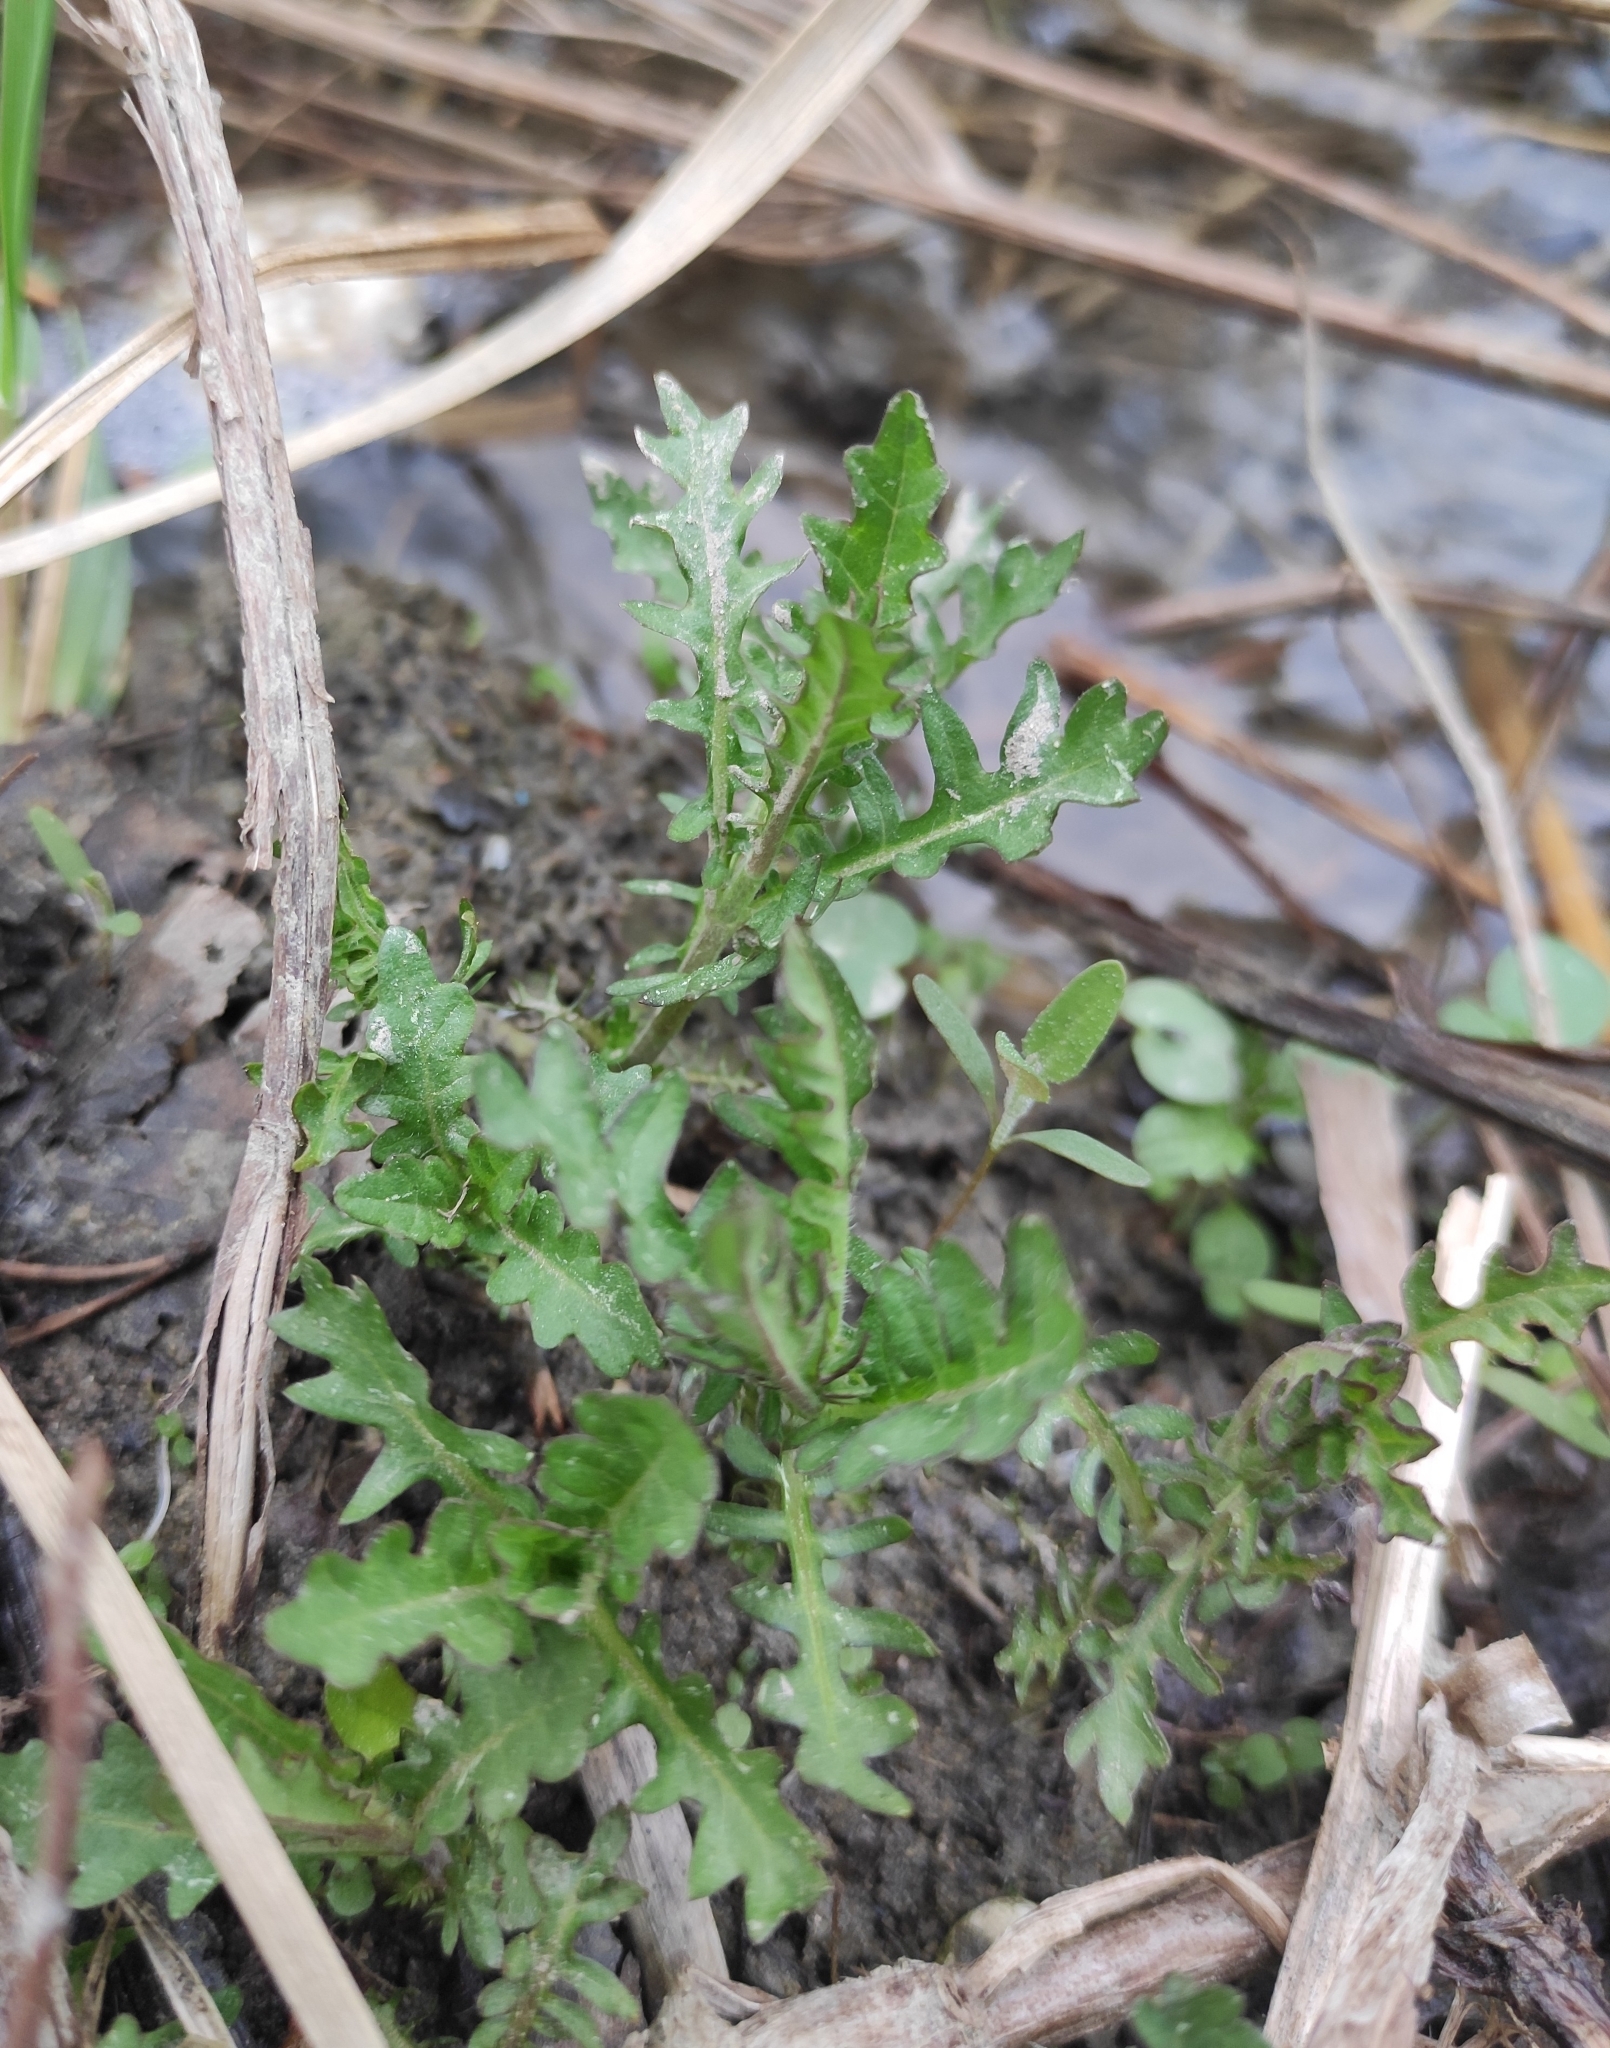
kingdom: Plantae
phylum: Tracheophyta
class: Magnoliopsida
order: Lamiales
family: Lamiaceae
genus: Lycopus
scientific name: Lycopus europaeus
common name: European bugleweed
